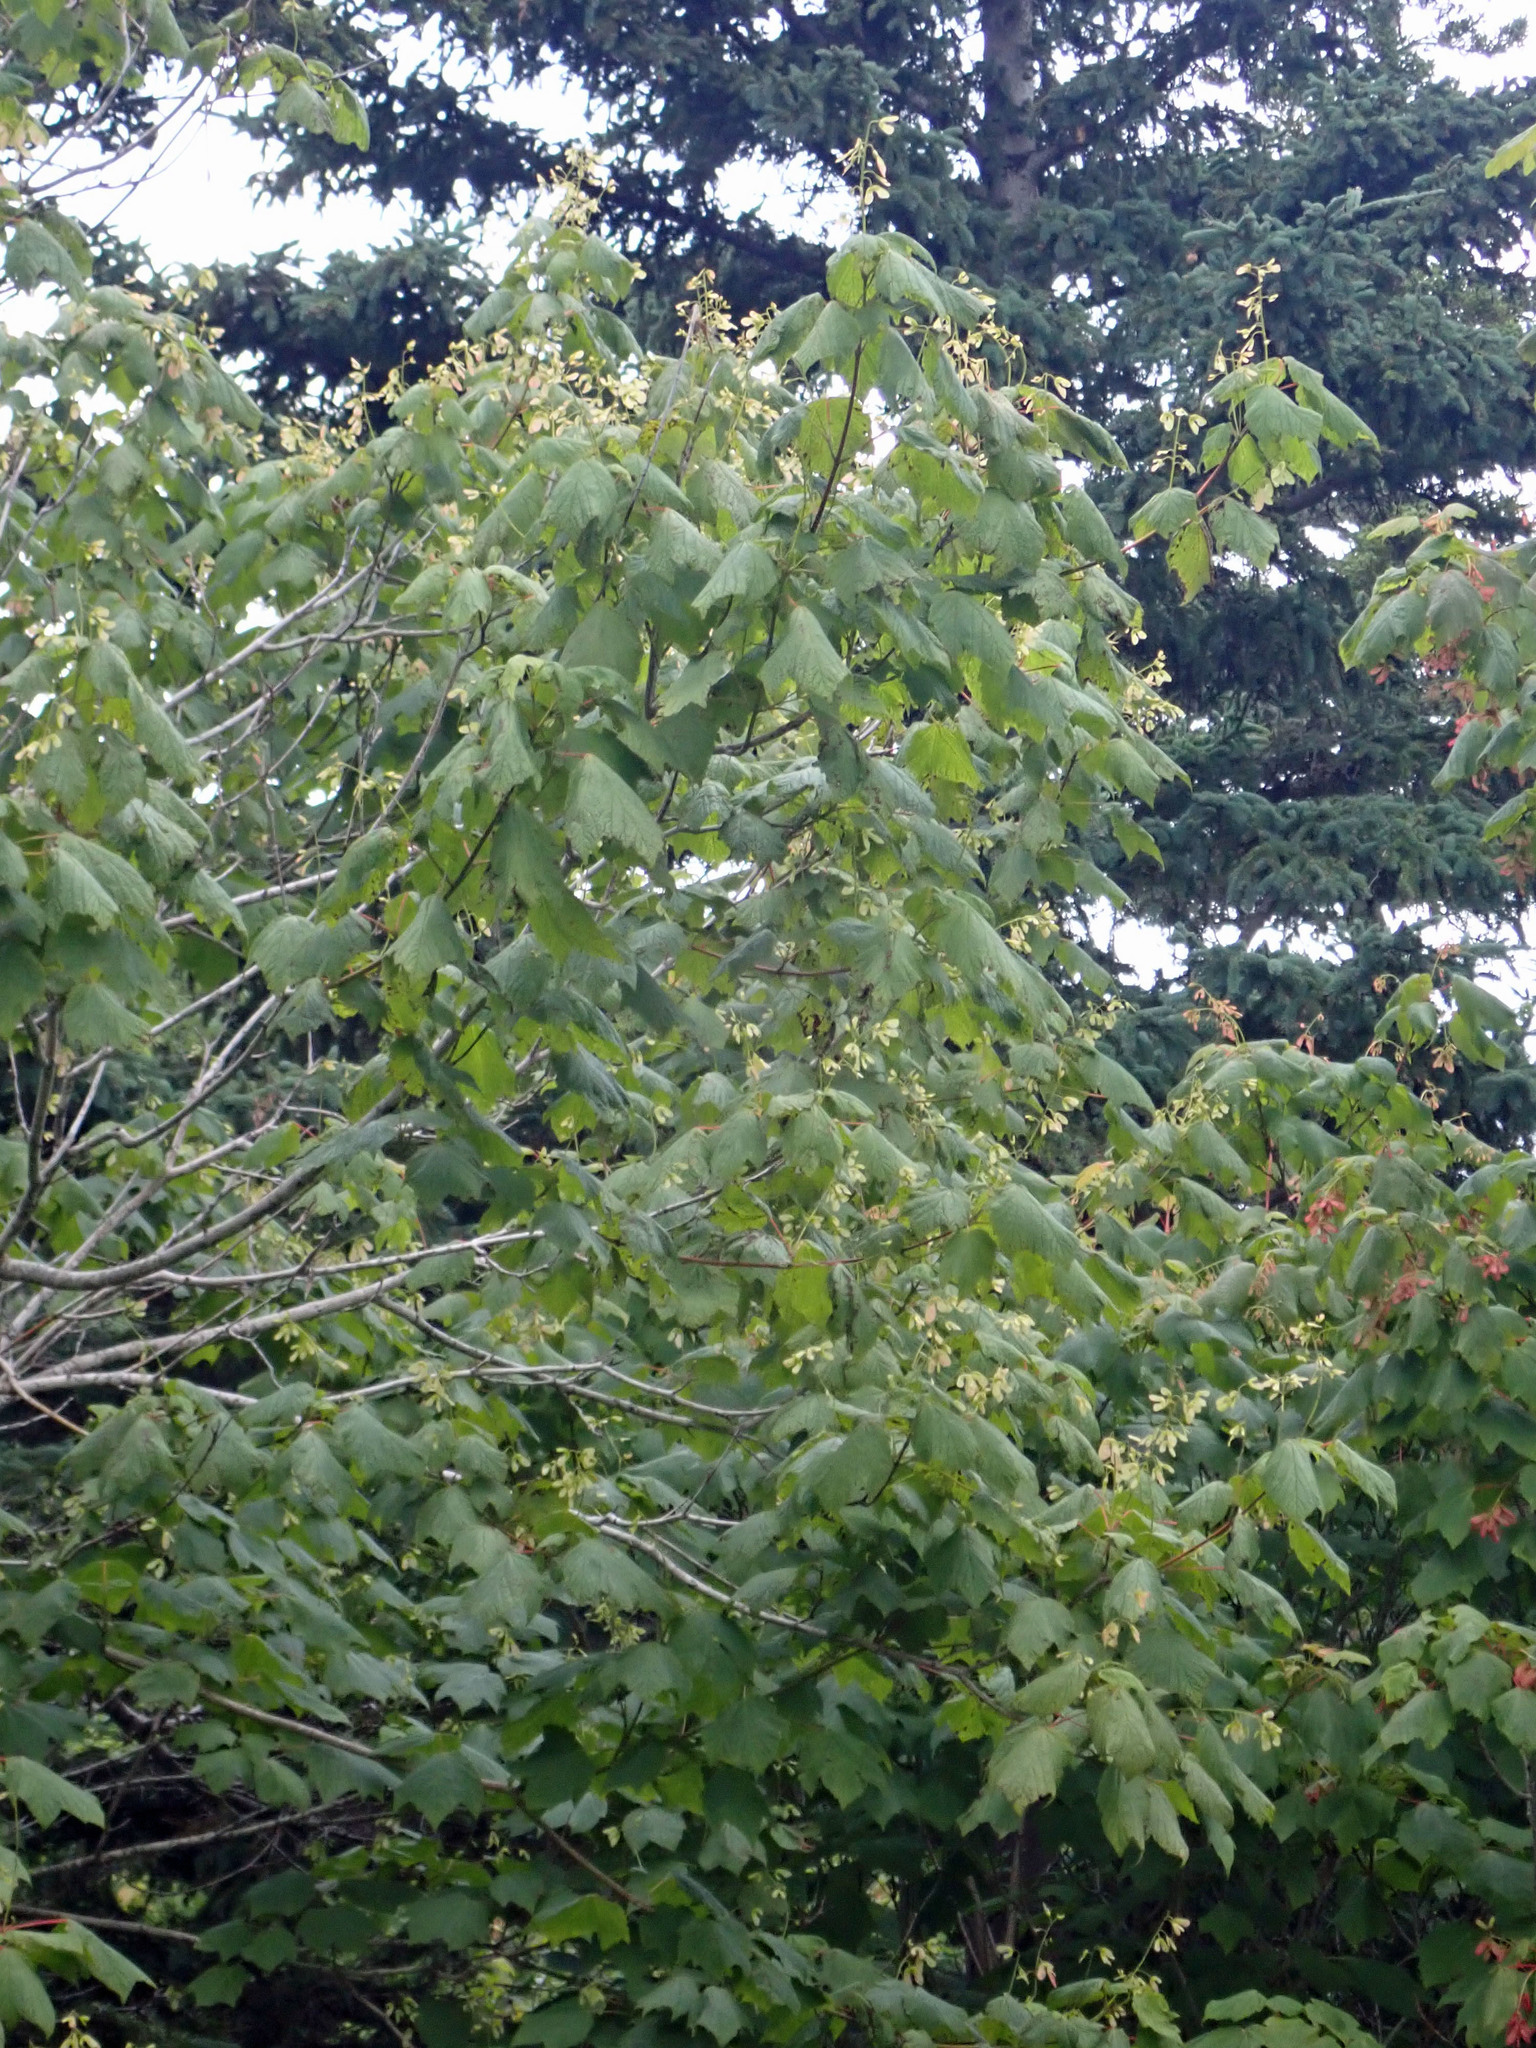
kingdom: Plantae
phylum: Tracheophyta
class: Magnoliopsida
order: Sapindales
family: Sapindaceae
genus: Acer
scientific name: Acer spicatum
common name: Mountain maple
